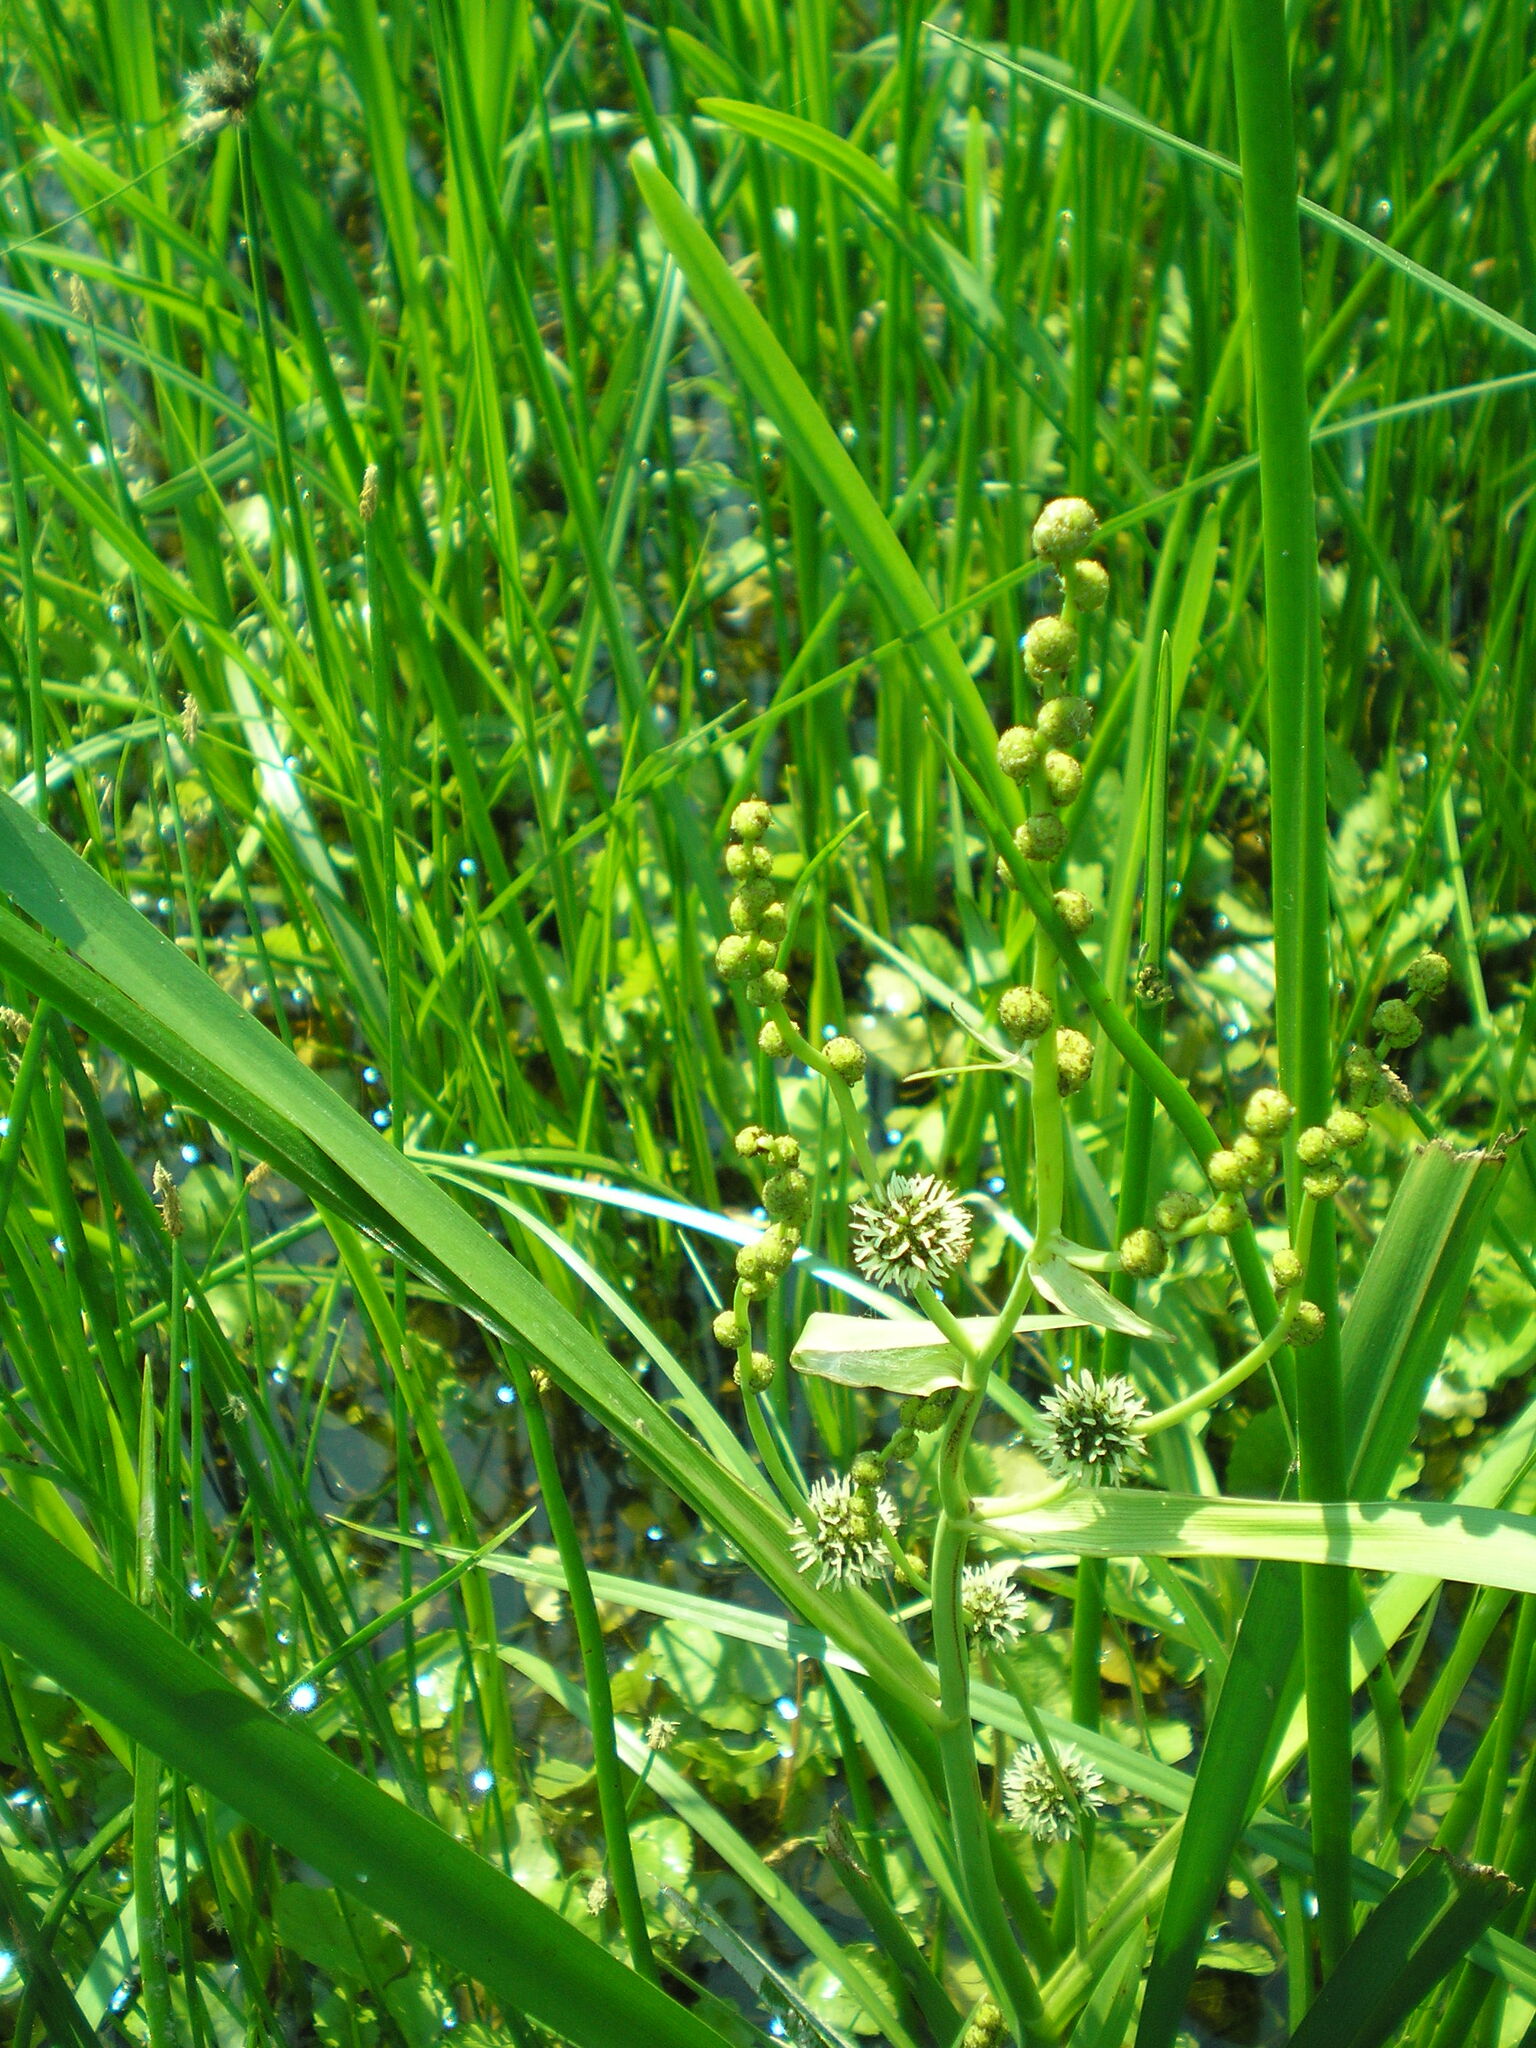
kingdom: Plantae
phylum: Tracheophyta
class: Liliopsida
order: Poales
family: Typhaceae
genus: Sparganium
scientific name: Sparganium erectum
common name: Branched bur-reed
